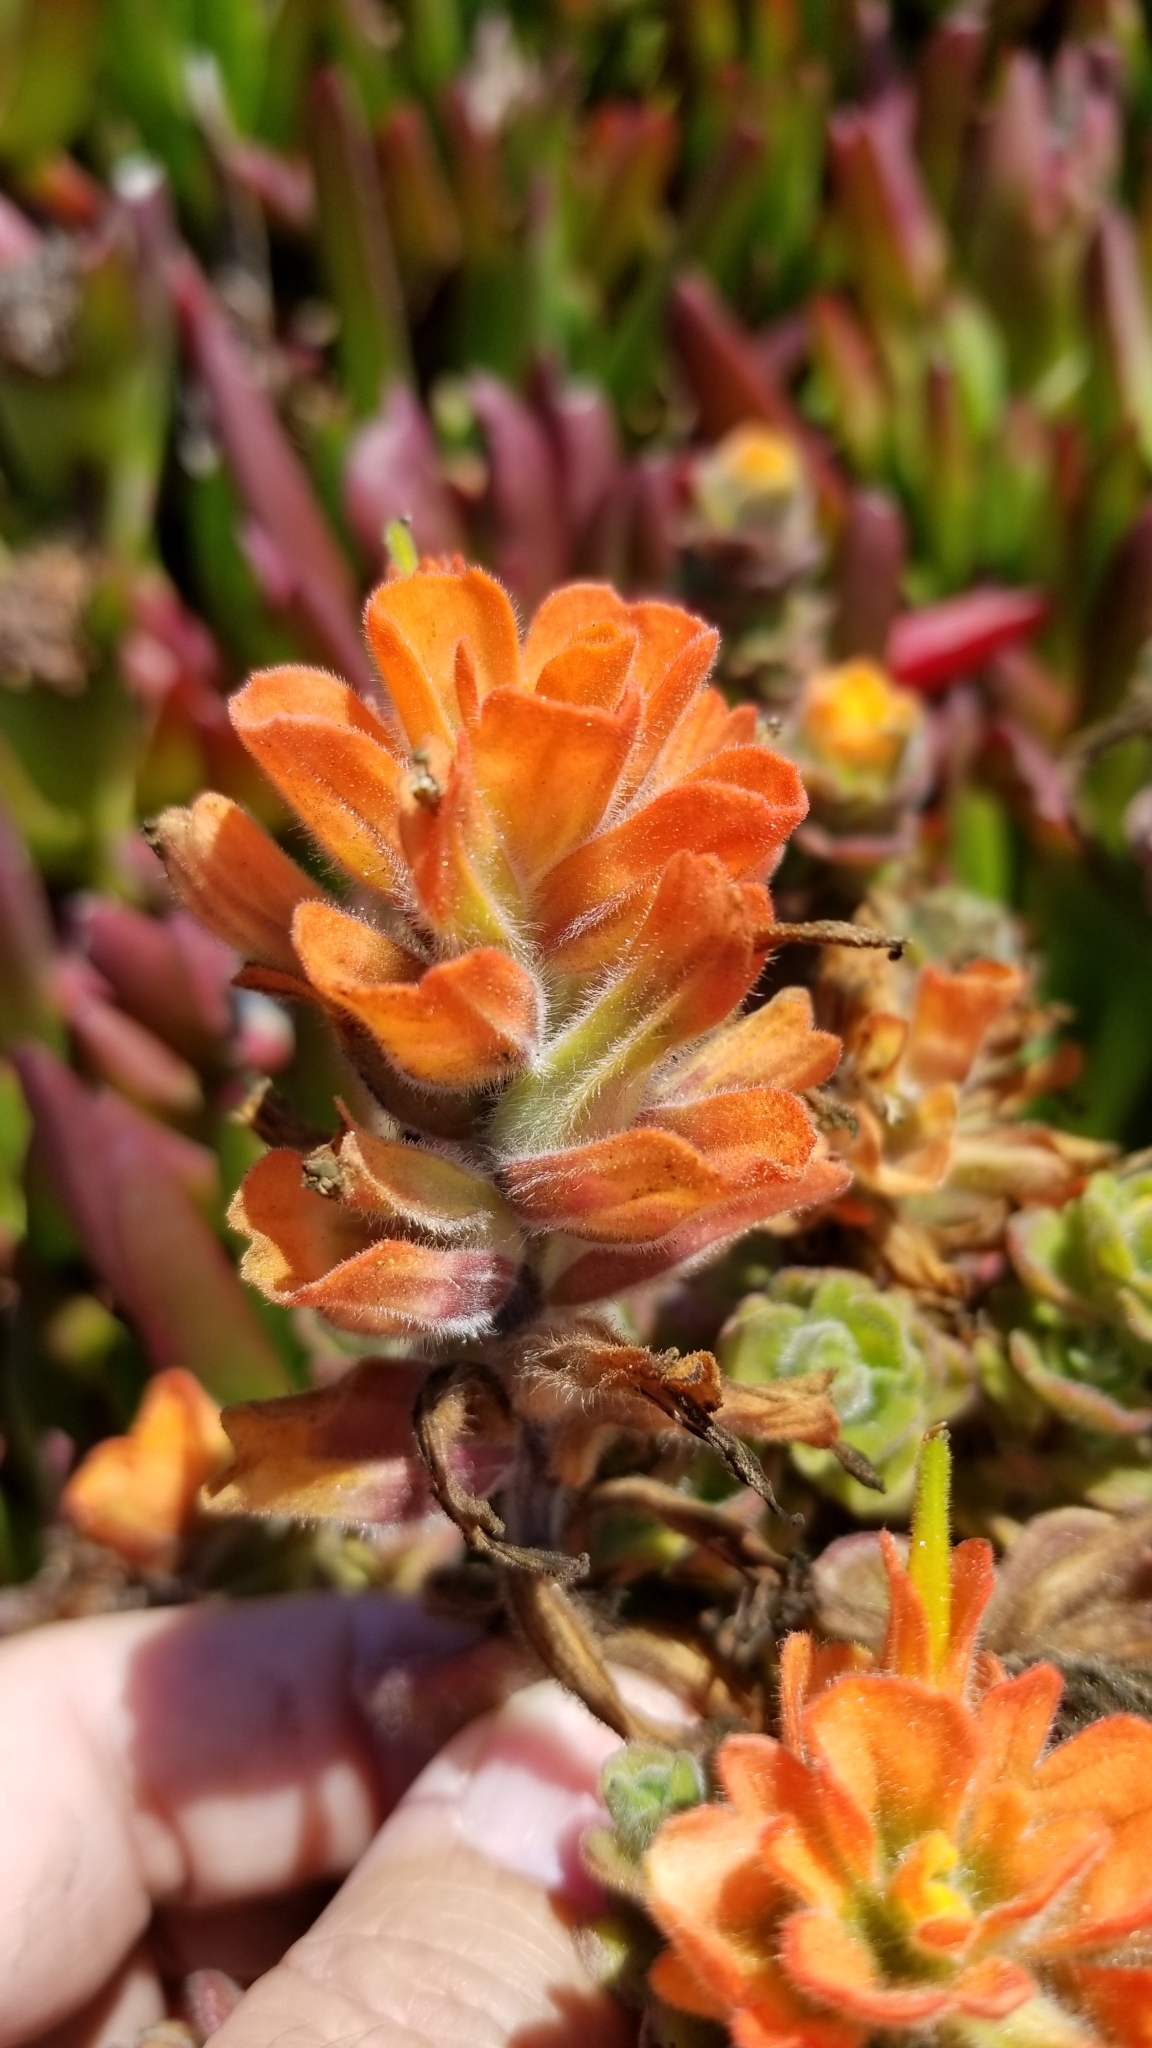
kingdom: Plantae
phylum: Tracheophyta
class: Magnoliopsida
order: Lamiales
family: Orobanchaceae
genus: Castilleja
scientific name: Castilleja latifolia
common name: Monterey indian paintbrush
